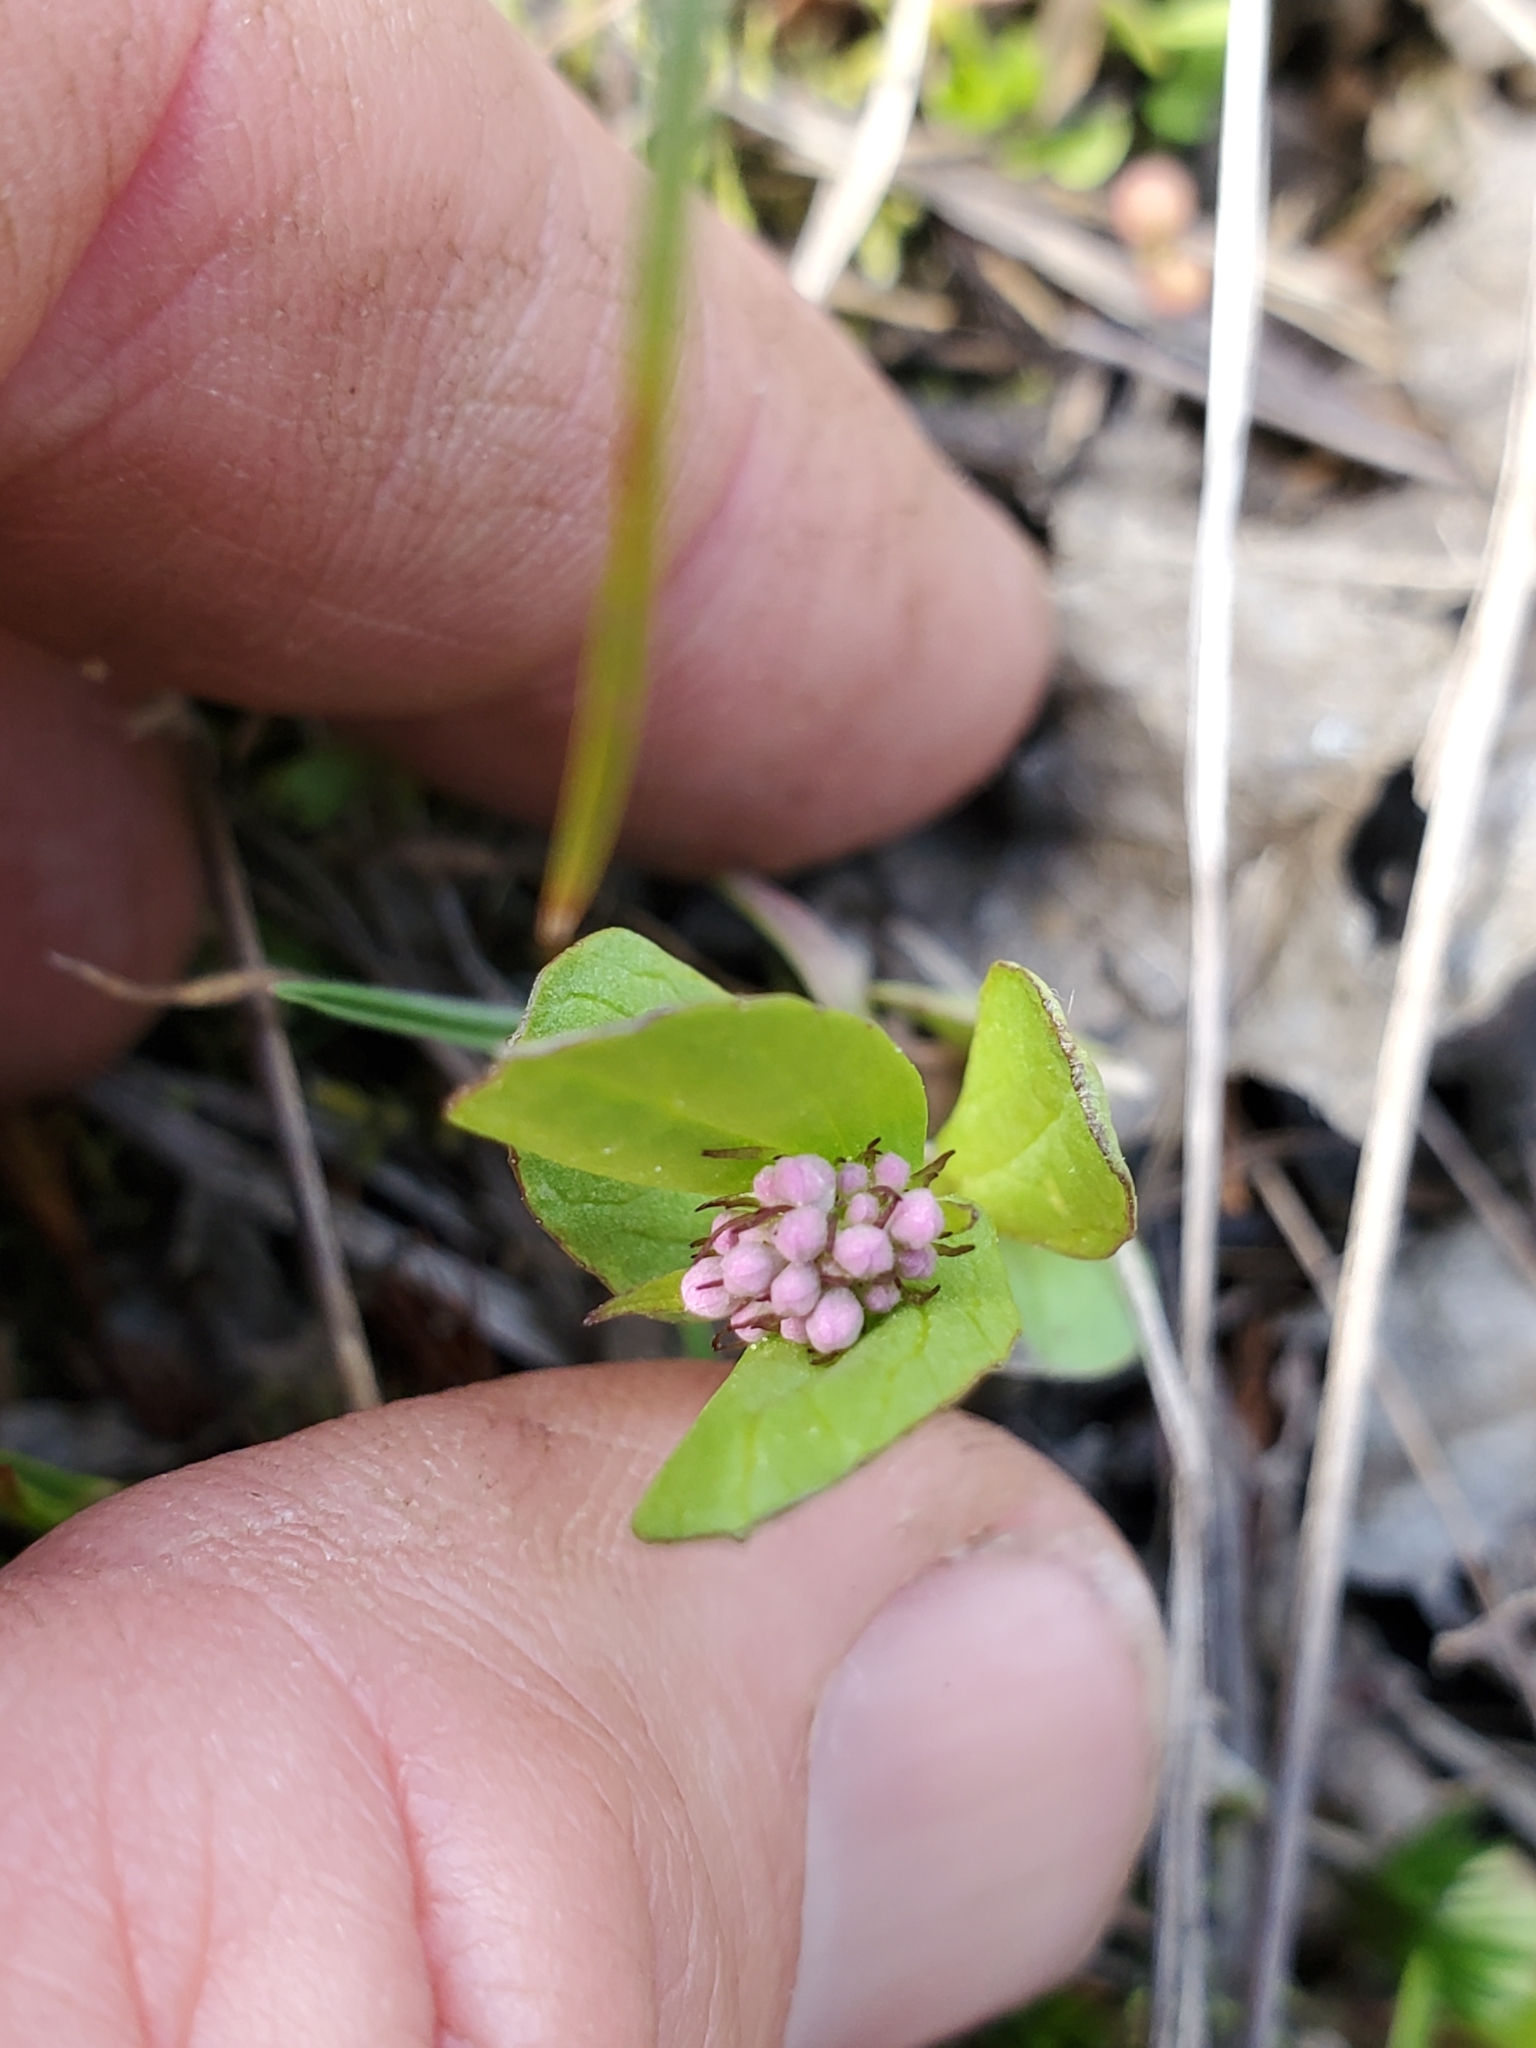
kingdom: Plantae
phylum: Tracheophyta
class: Magnoliopsida
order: Dipsacales
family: Caprifoliaceae
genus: Plectritis
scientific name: Plectritis congesta
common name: Pink plectritis
